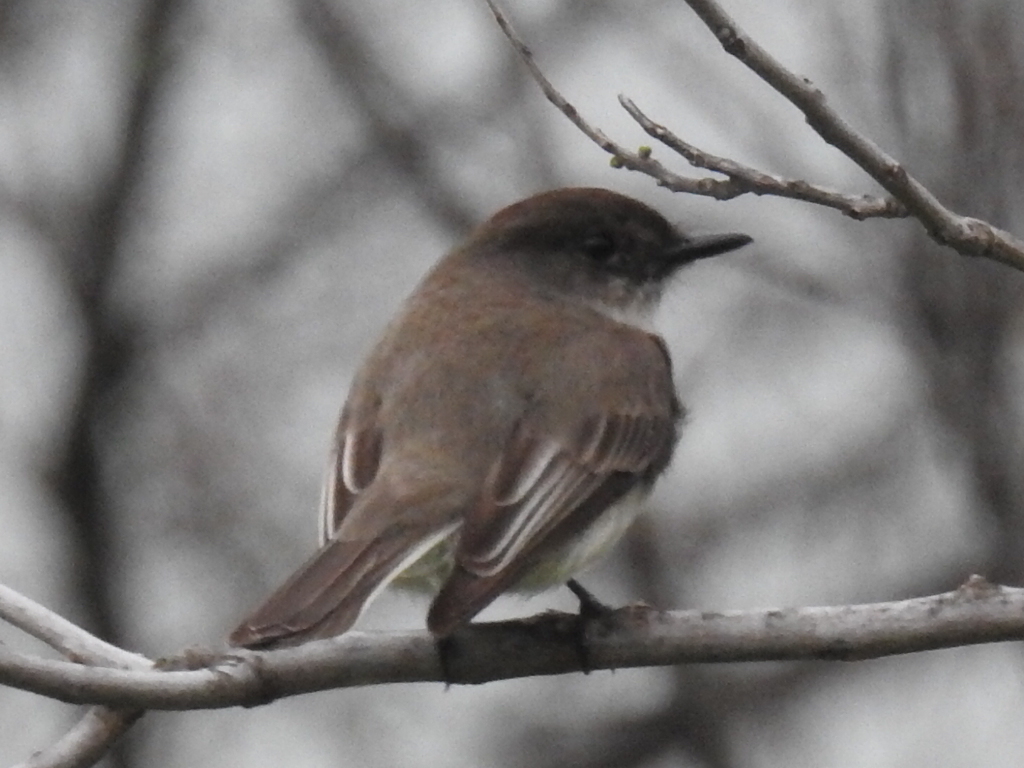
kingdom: Animalia
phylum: Chordata
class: Aves
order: Passeriformes
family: Tyrannidae
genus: Sayornis
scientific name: Sayornis phoebe
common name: Eastern phoebe
